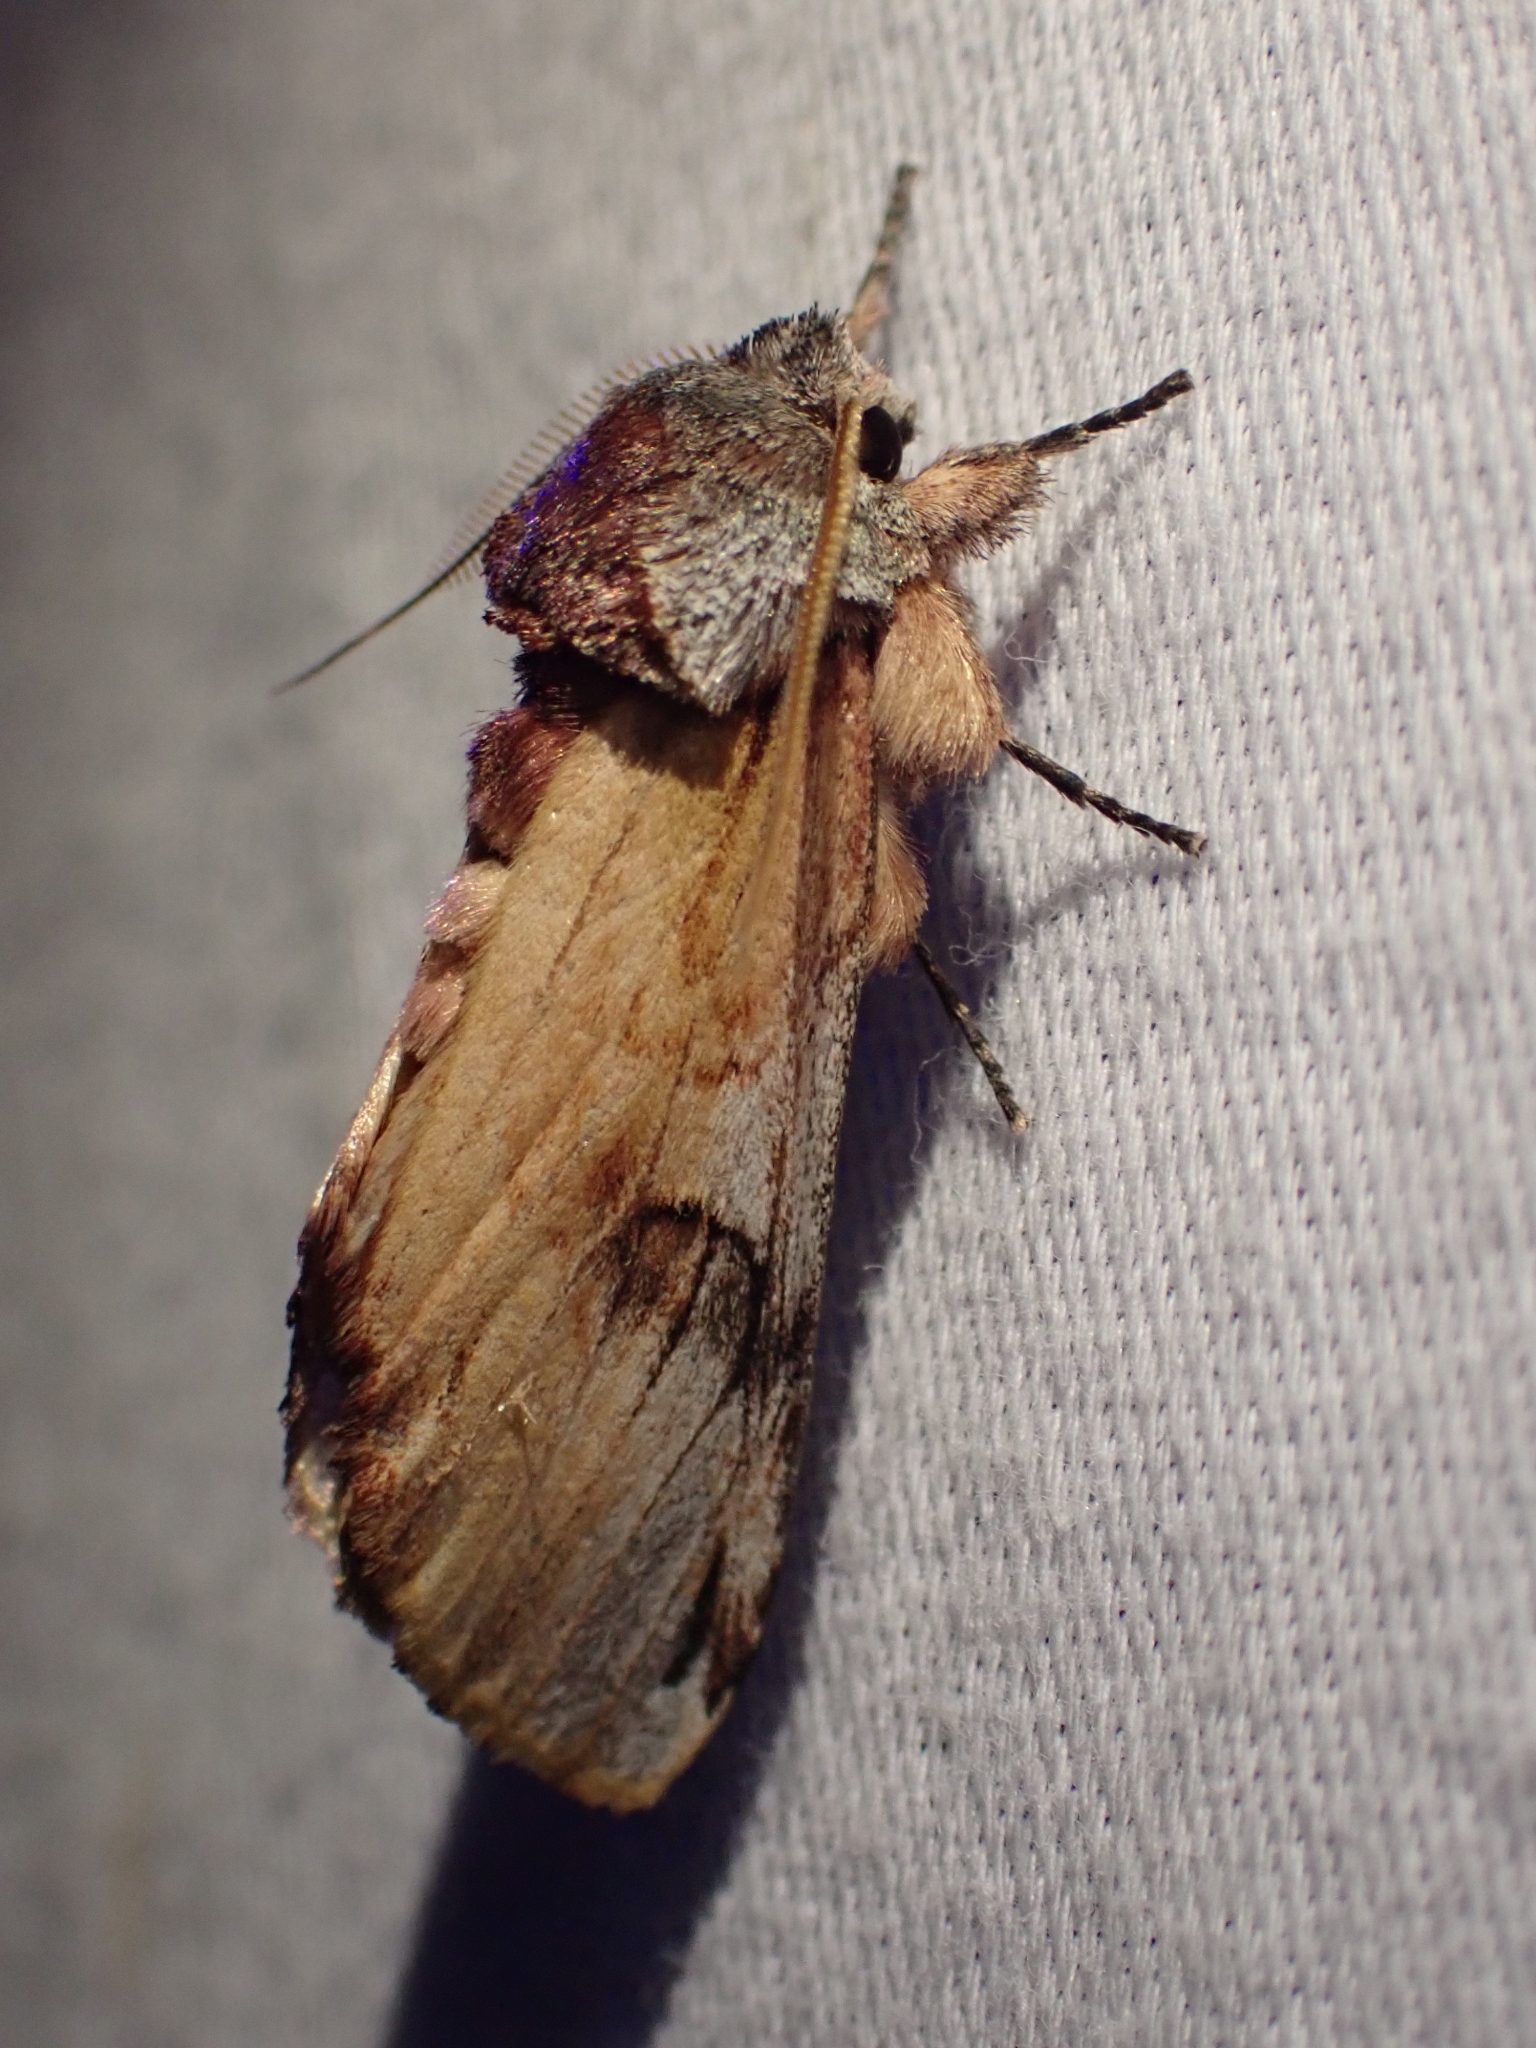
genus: Ianassa
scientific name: Ianassa
